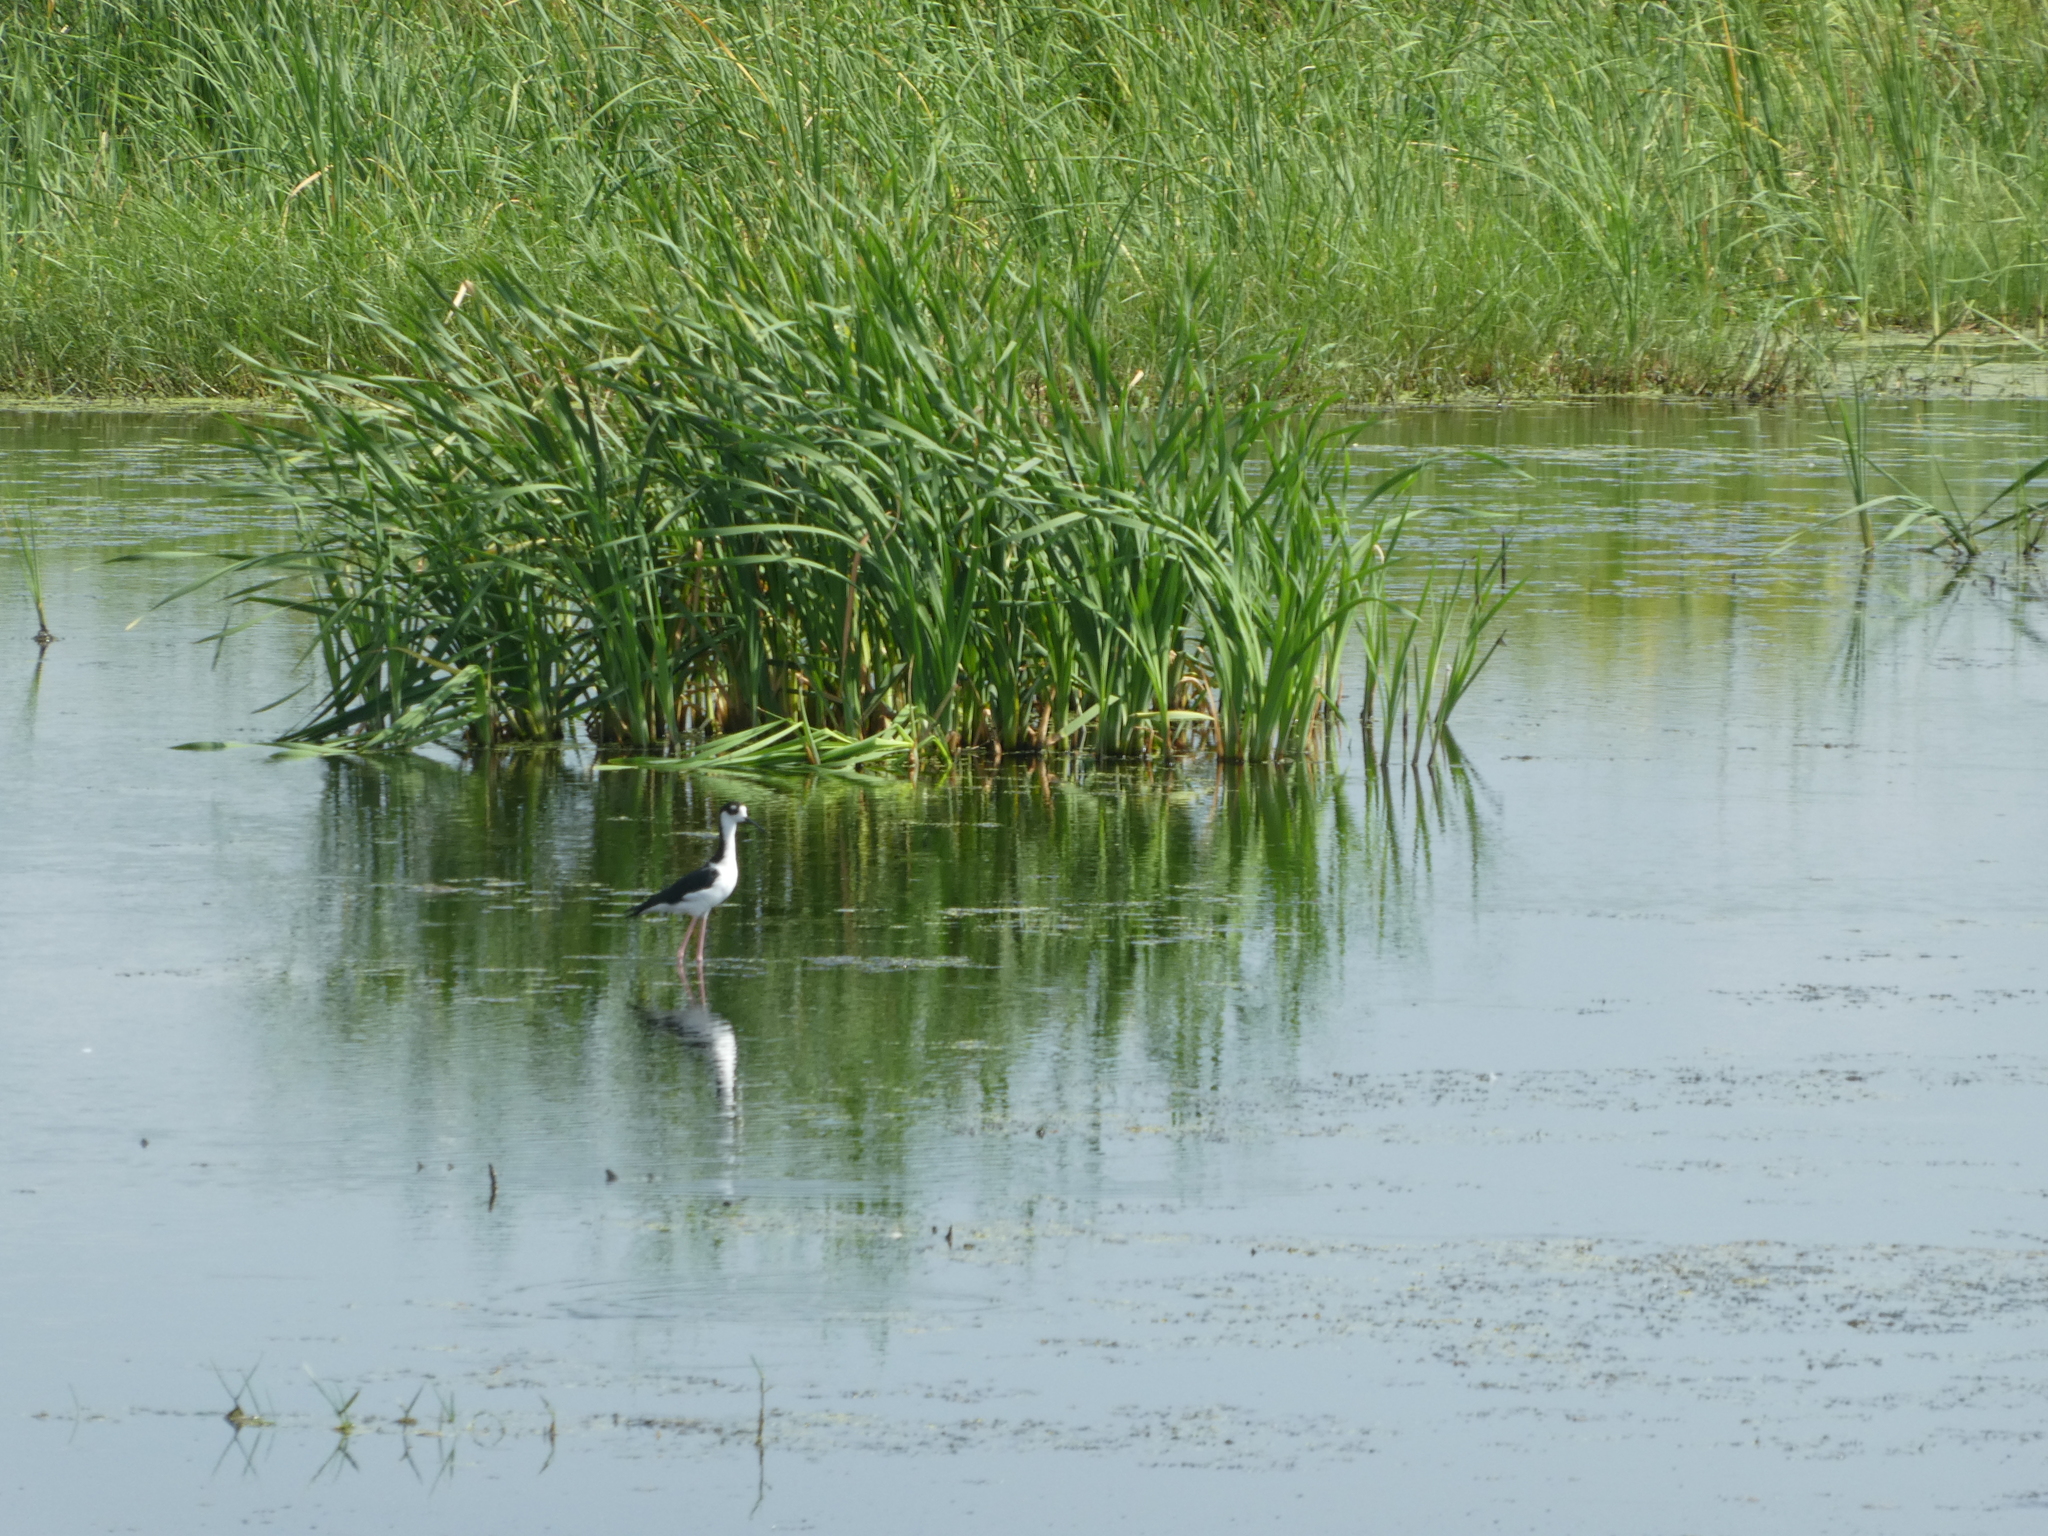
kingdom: Animalia
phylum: Chordata
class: Aves
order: Charadriiformes
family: Recurvirostridae
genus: Himantopus
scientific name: Himantopus mexicanus
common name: Black-necked stilt
